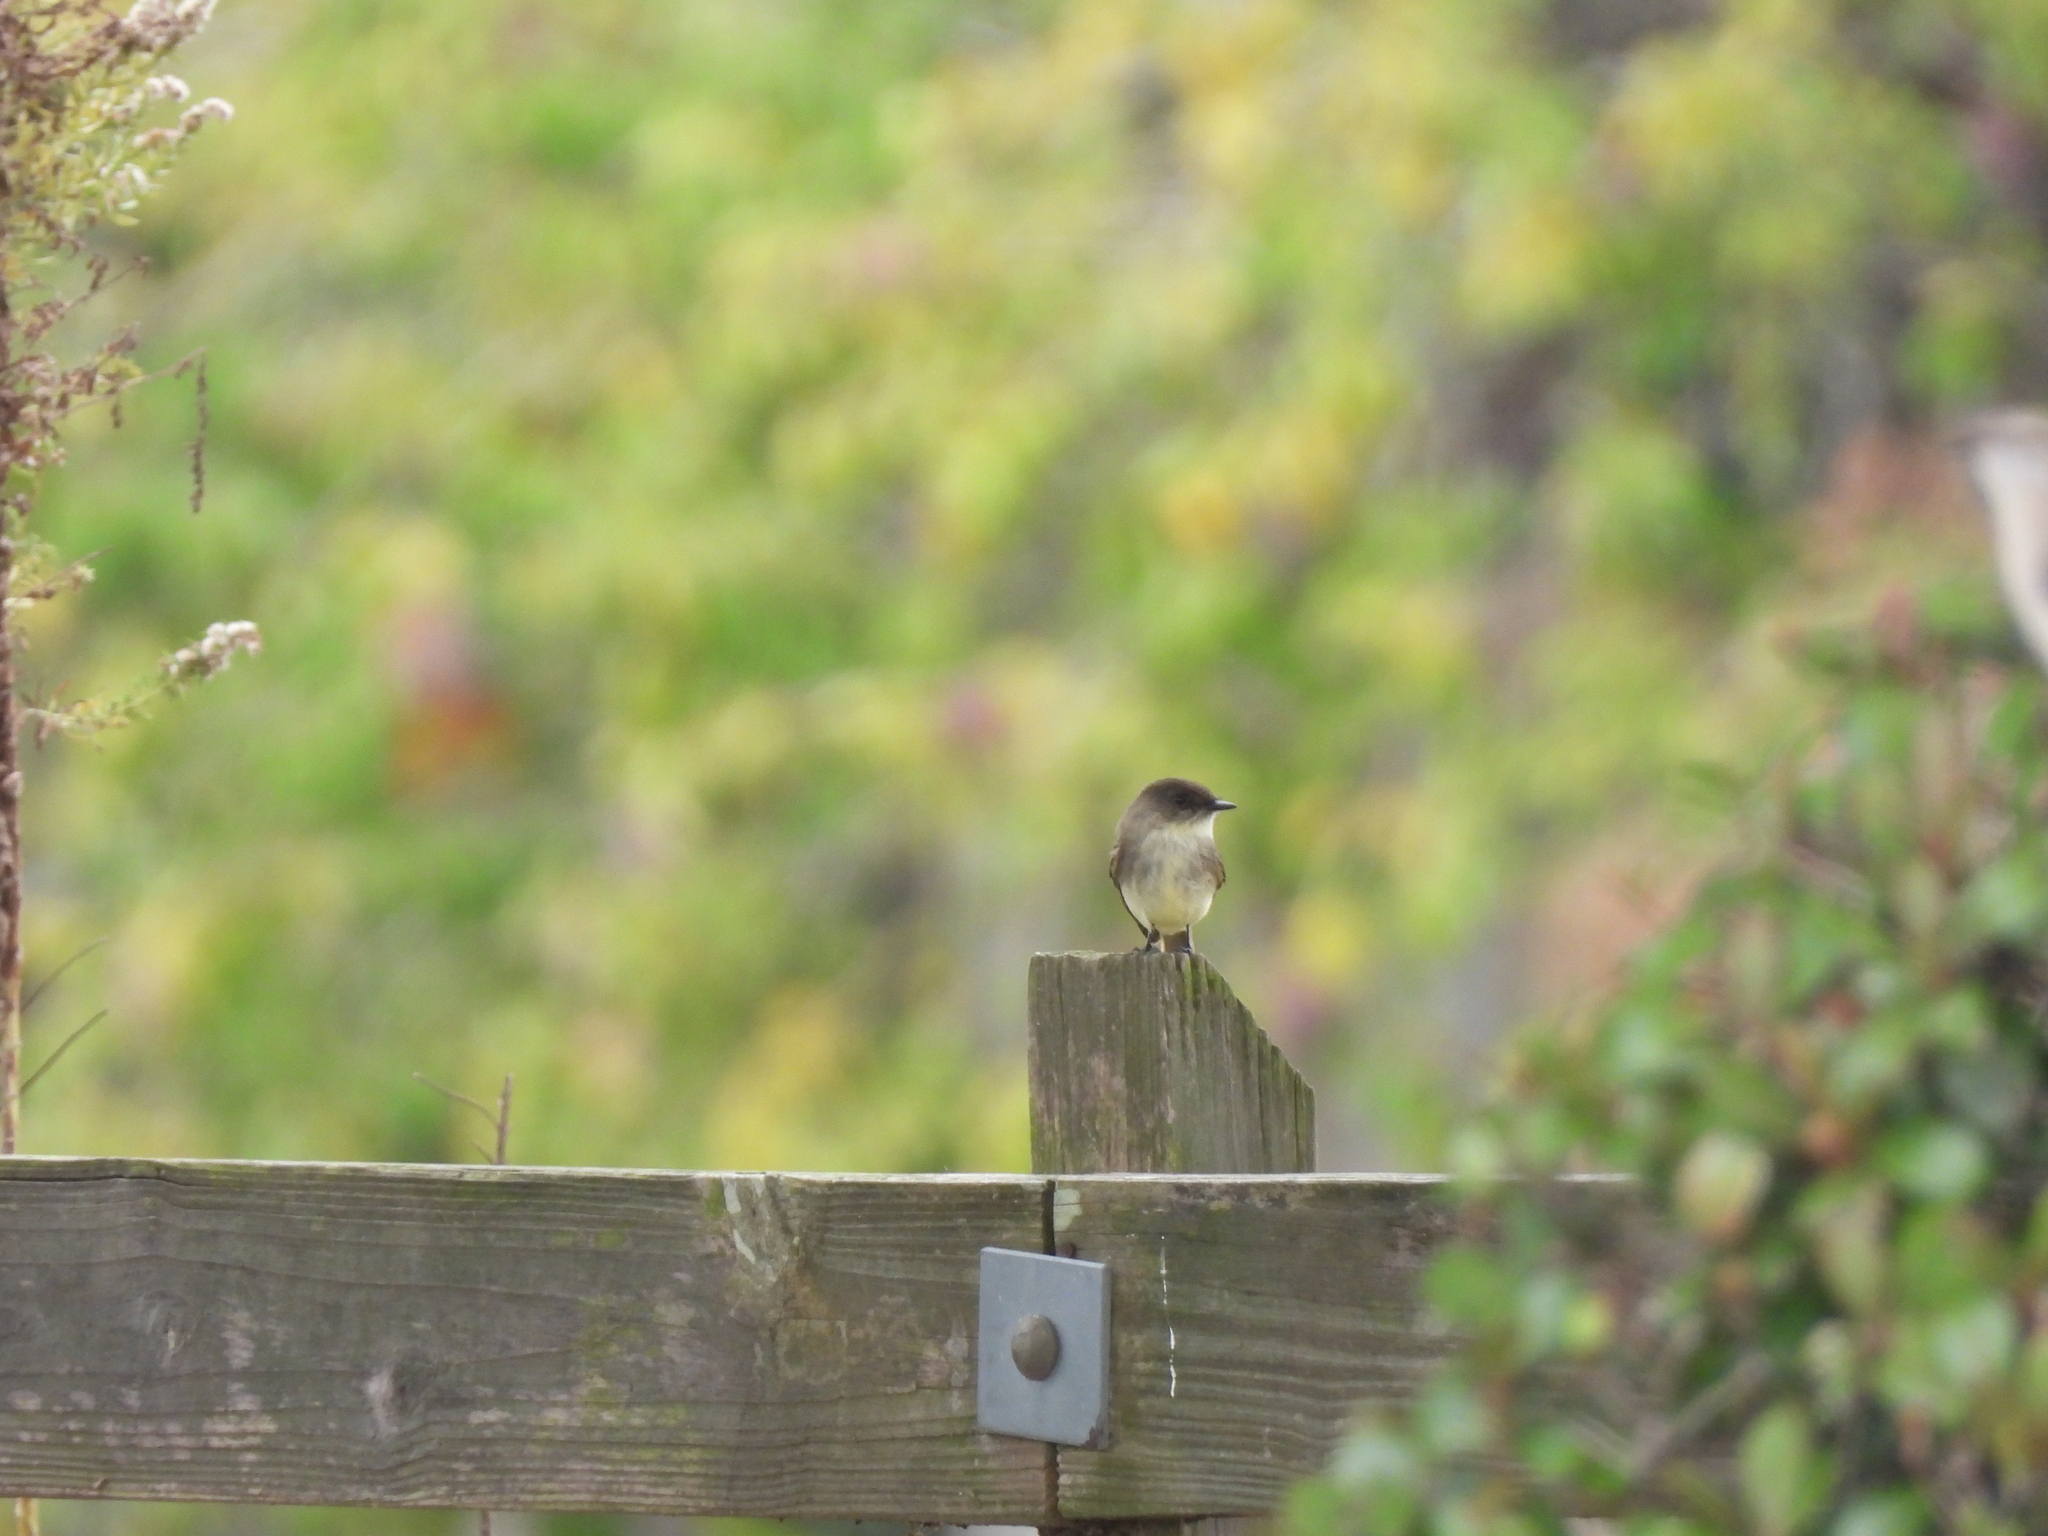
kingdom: Animalia
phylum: Chordata
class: Aves
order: Passeriformes
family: Tyrannidae
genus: Sayornis
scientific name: Sayornis phoebe
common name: Eastern phoebe
